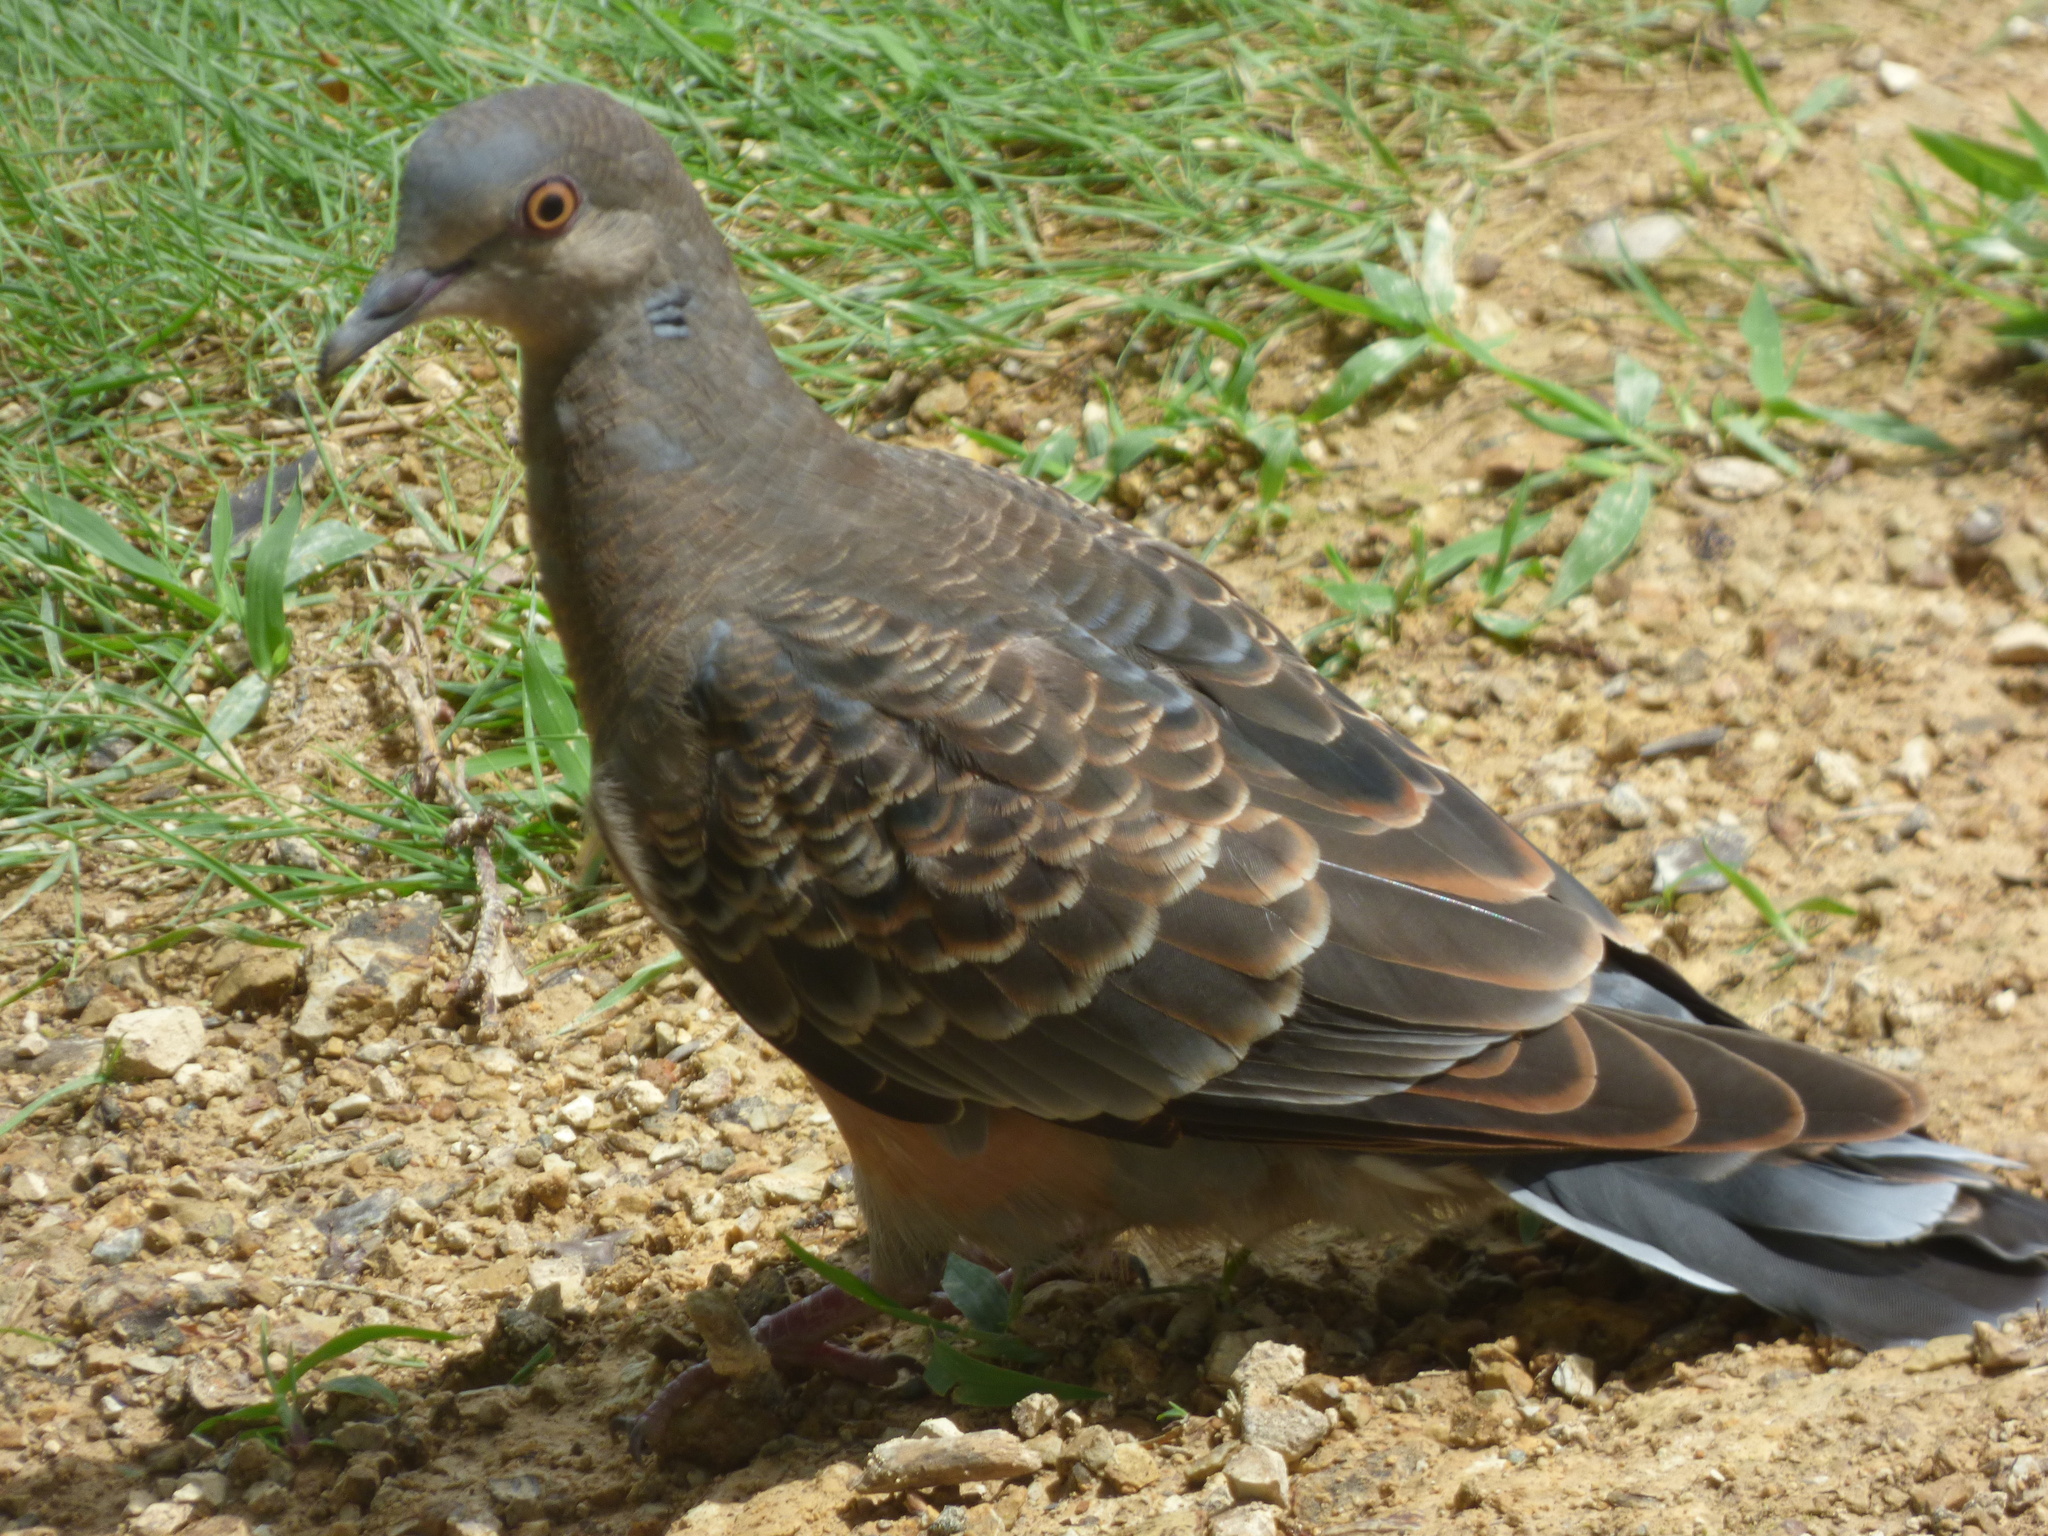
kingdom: Animalia
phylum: Chordata
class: Aves
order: Columbiformes
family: Columbidae
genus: Streptopelia
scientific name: Streptopelia orientalis
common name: Oriental turtle dove
